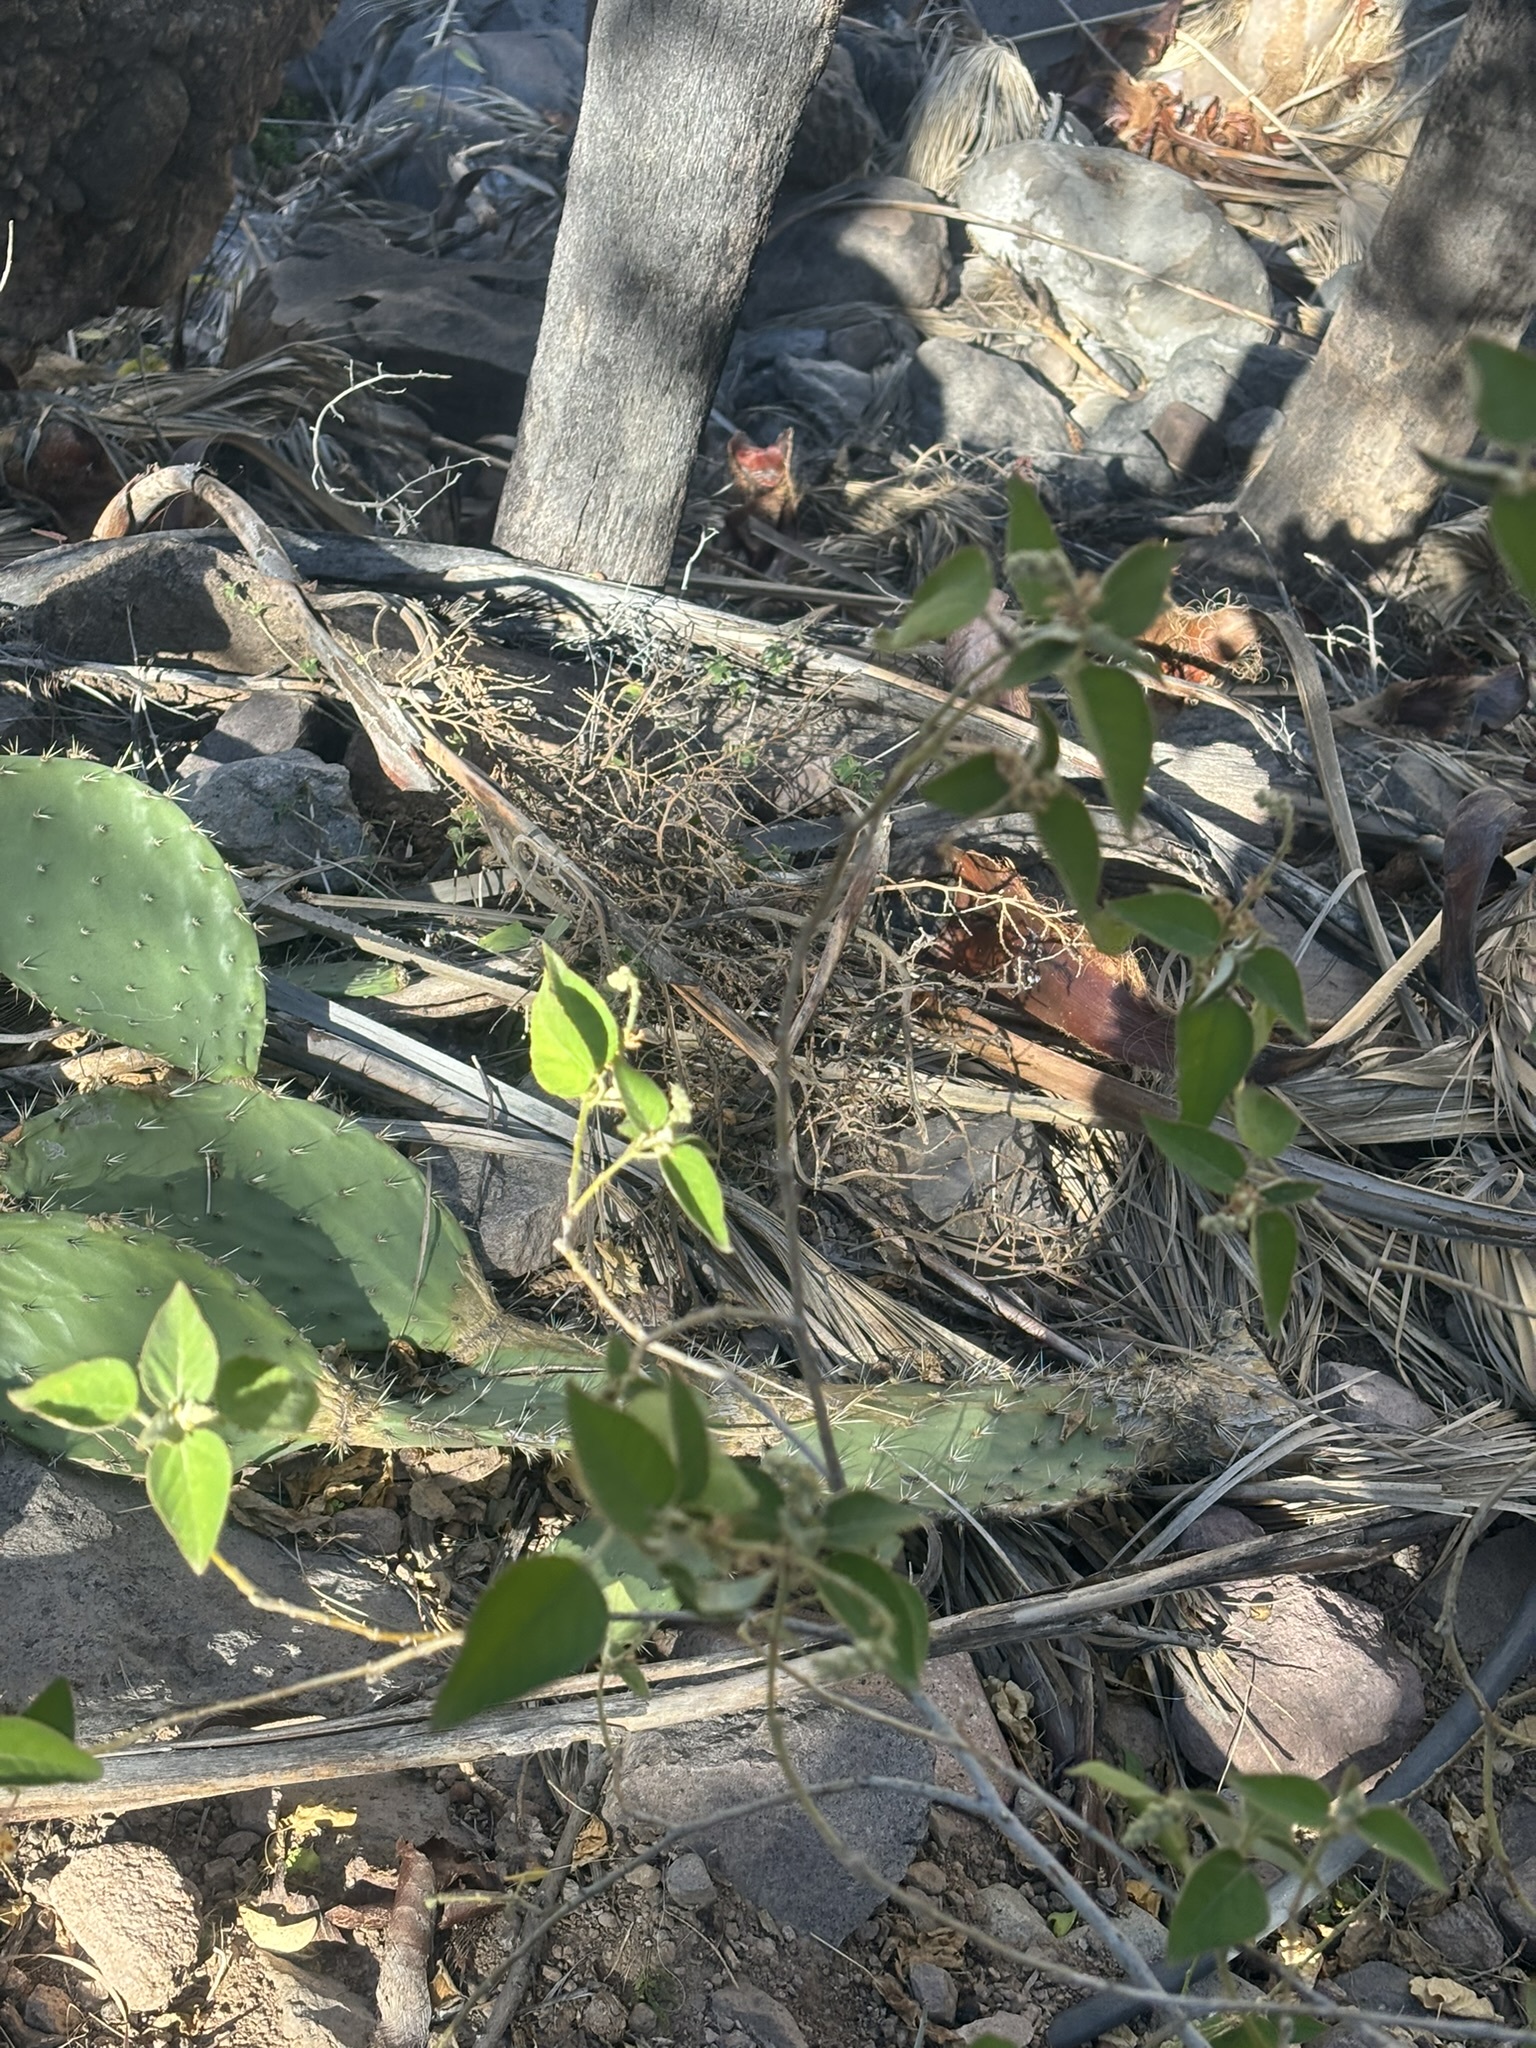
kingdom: Plantae
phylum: Tracheophyta
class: Magnoliopsida
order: Malpighiales
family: Euphorbiaceae
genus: Croton
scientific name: Croton ciliatoglandulifer
